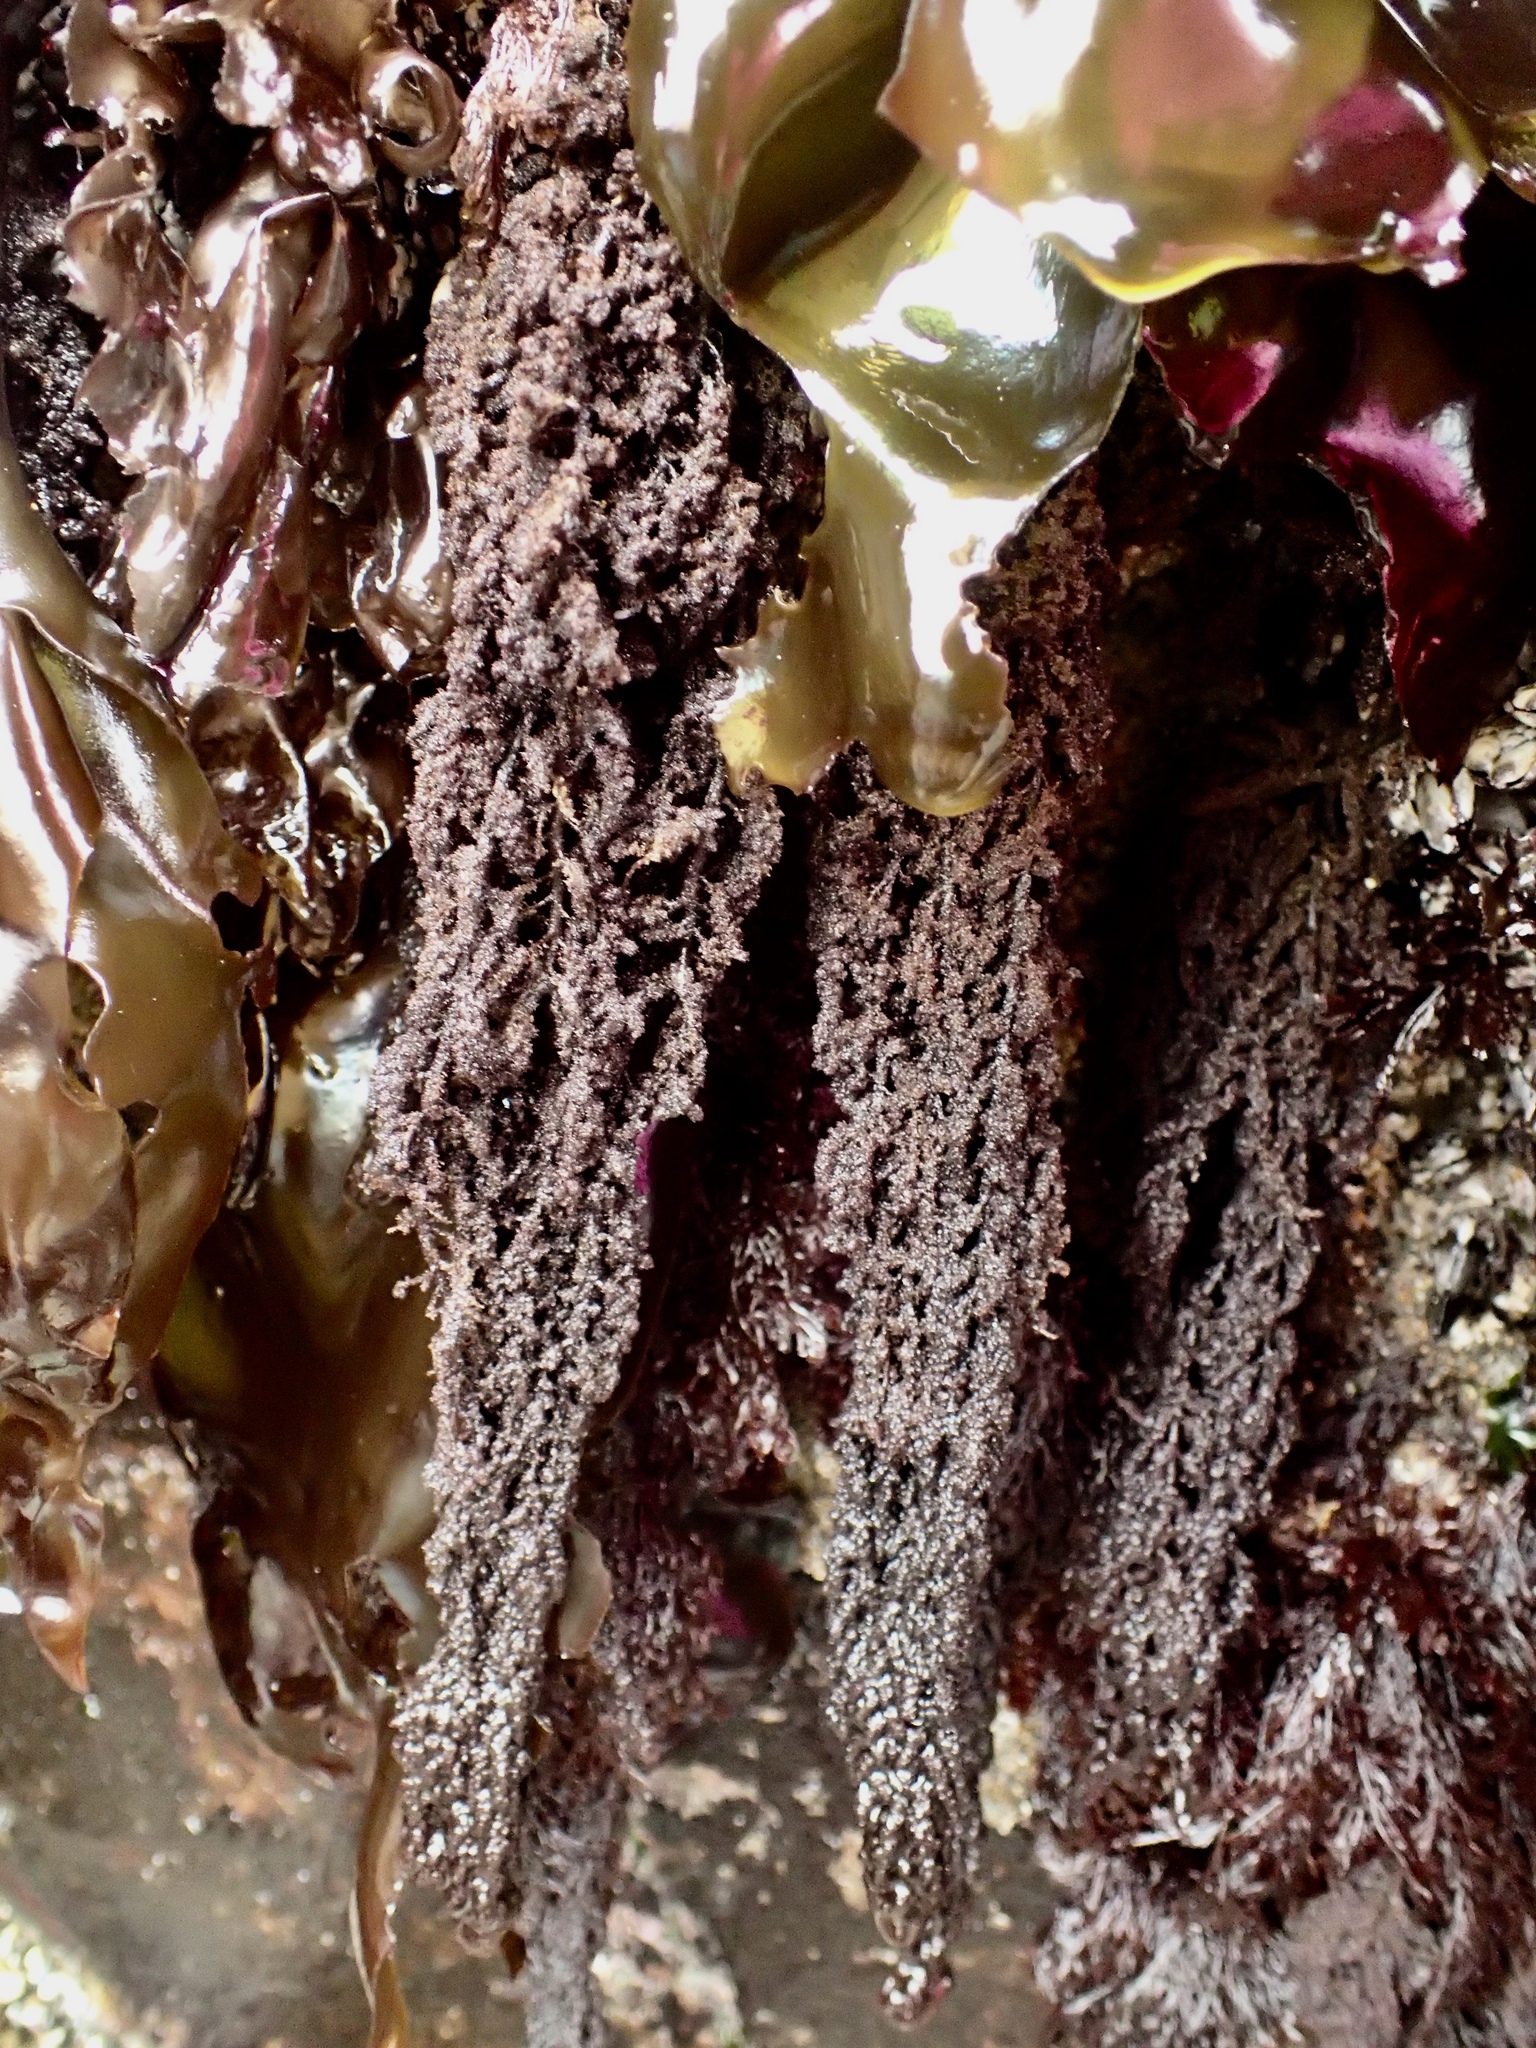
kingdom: Plantae
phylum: Rhodophyta
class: Florideophyceae
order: Ceramiales
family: Callithamniaceae
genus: Callithamnion
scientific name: Callithamnion pikeanum
